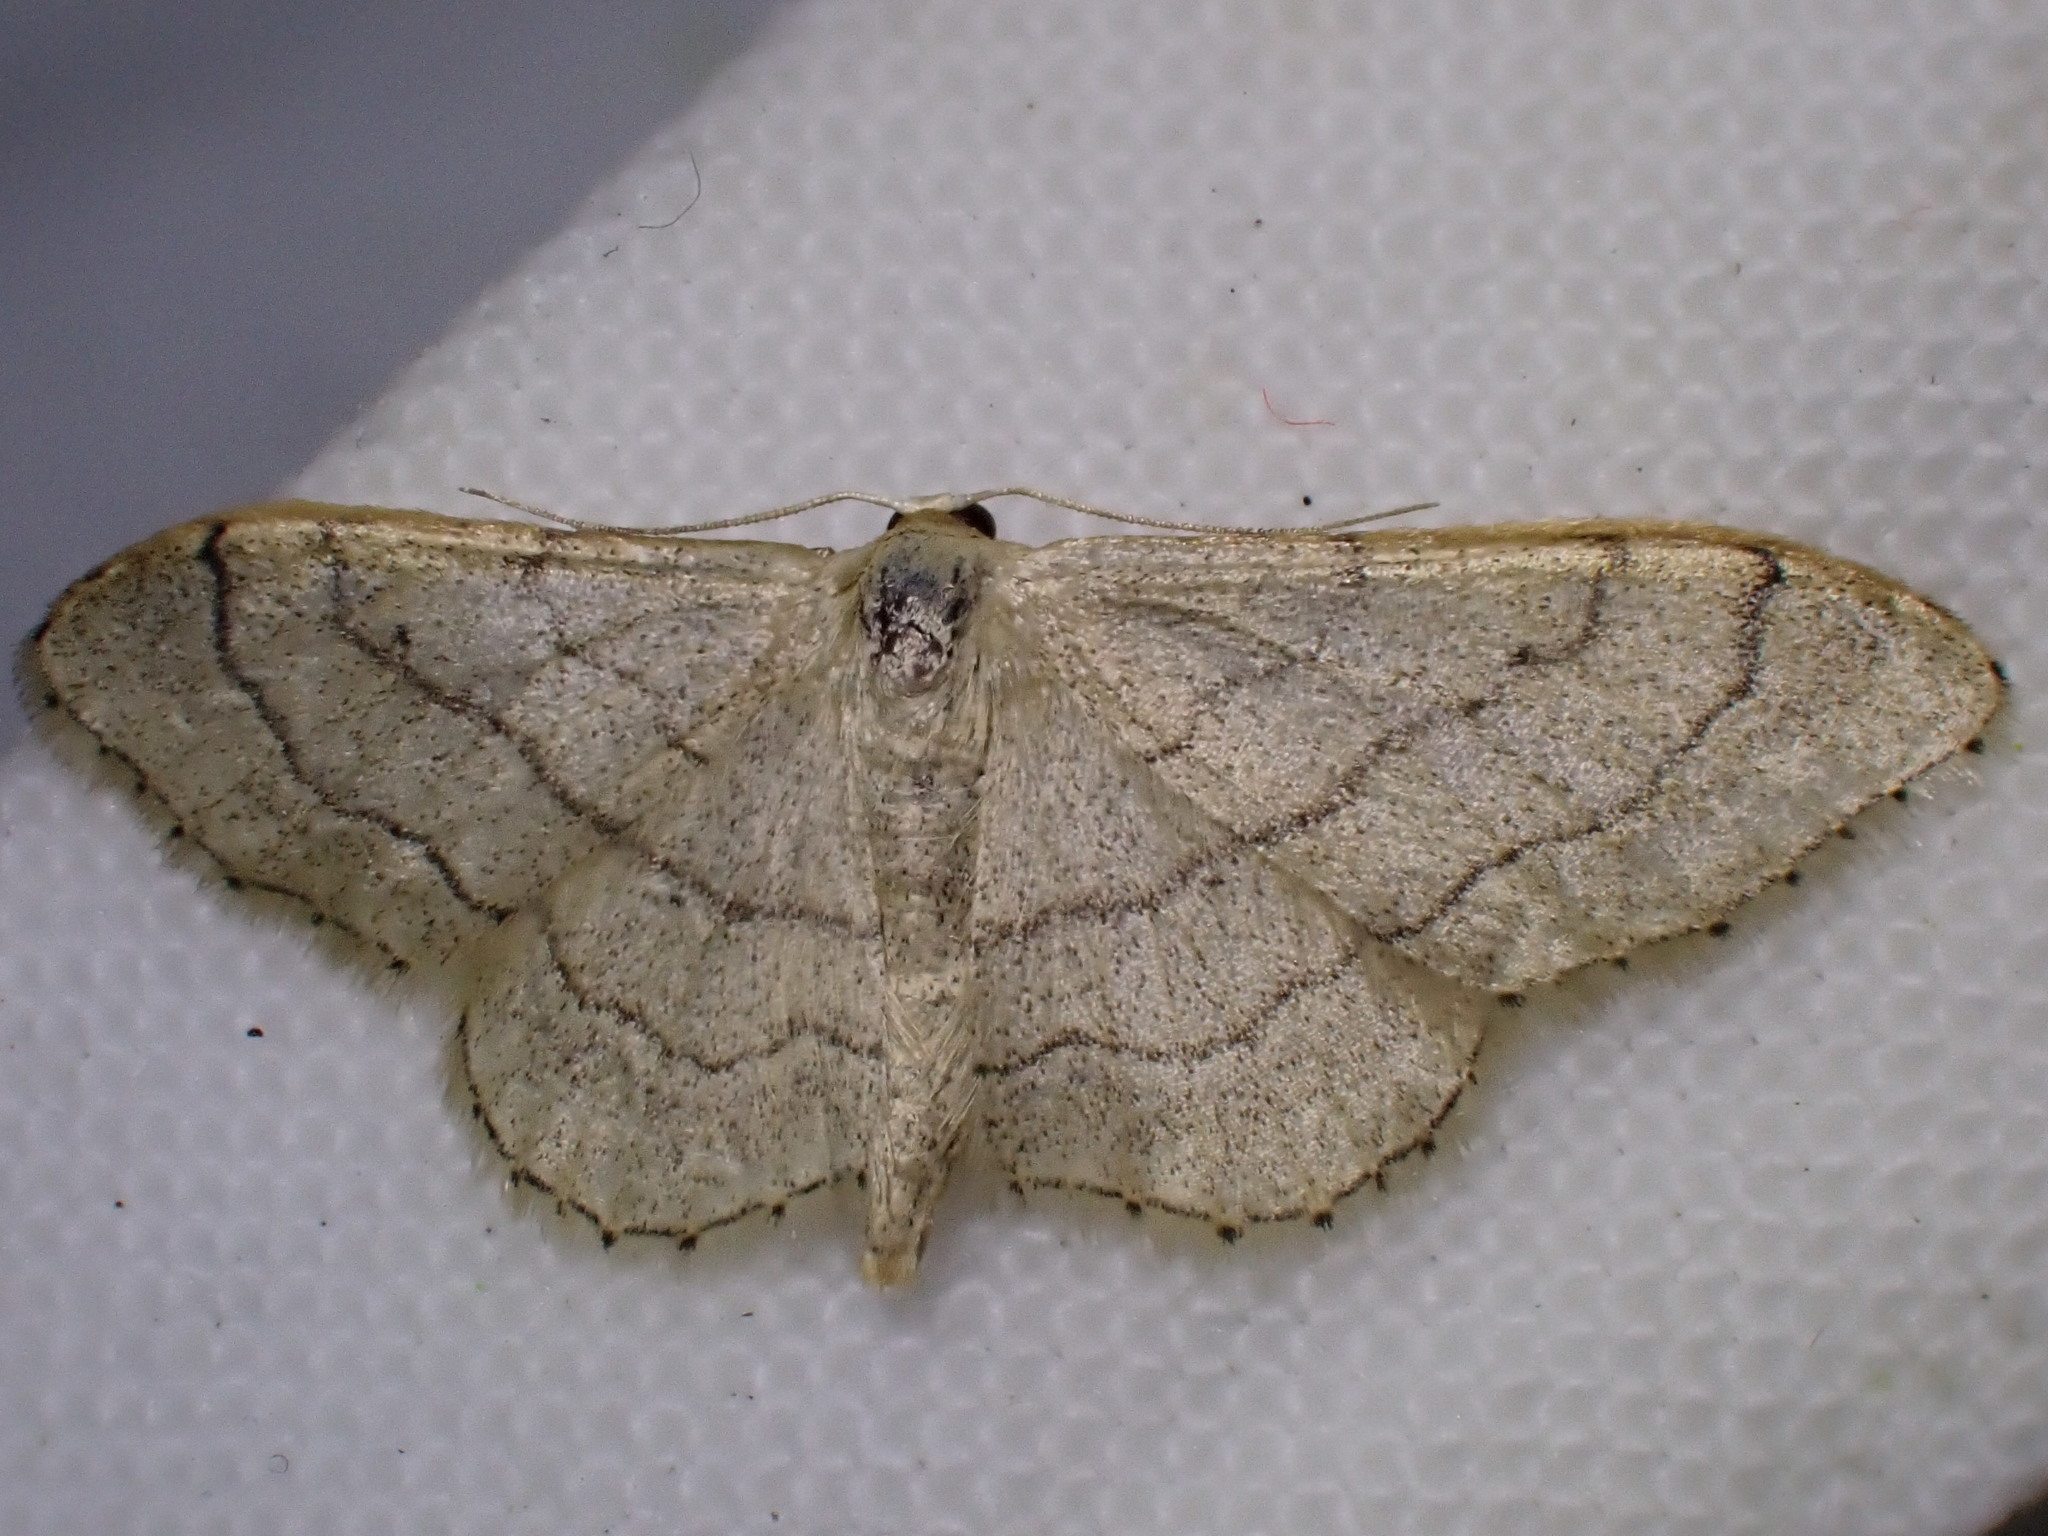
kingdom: Animalia
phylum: Arthropoda
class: Insecta
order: Lepidoptera
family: Geometridae
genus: Idaea
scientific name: Idaea aversata
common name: Riband wave
